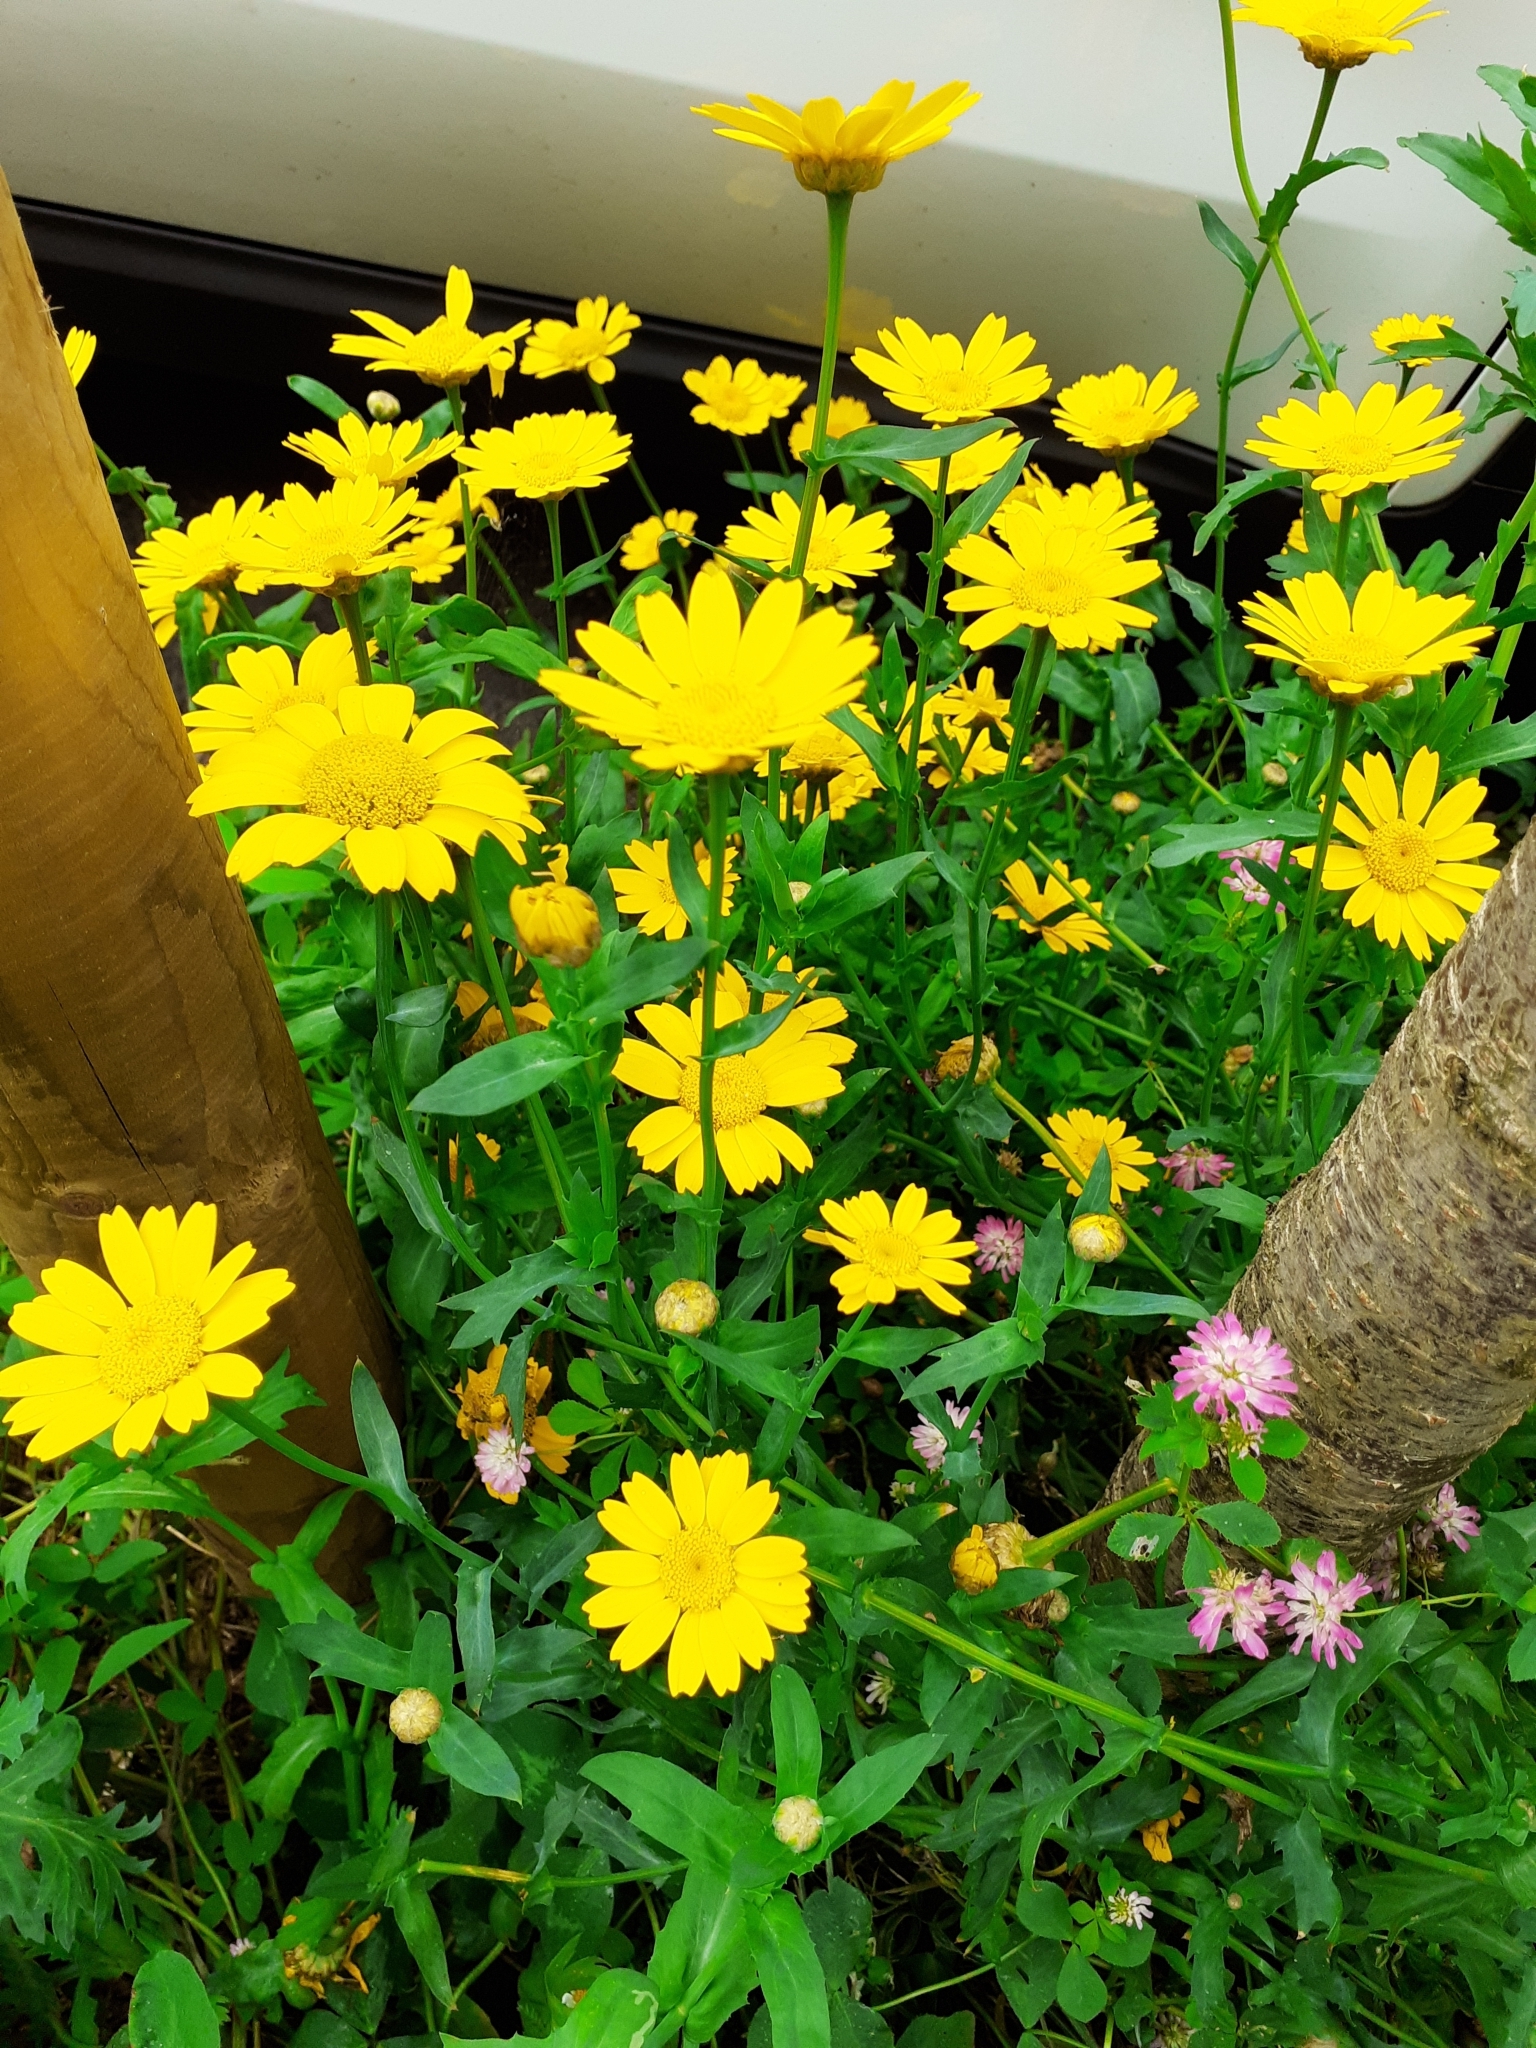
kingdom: Plantae
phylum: Tracheophyta
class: Magnoliopsida
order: Asterales
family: Asteraceae
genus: Glebionis
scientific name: Glebionis segetum
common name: Corndaisy
